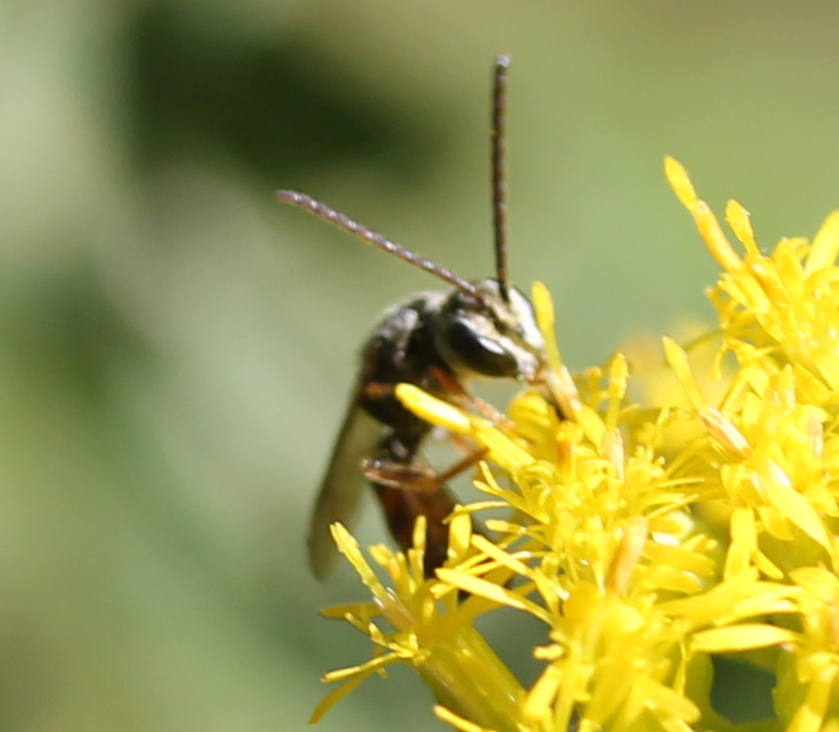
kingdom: Animalia
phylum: Arthropoda
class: Insecta
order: Hymenoptera
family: Halictidae
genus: Lasioglossum
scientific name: Lasioglossum zephyrum
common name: Zephyr sweat bee
